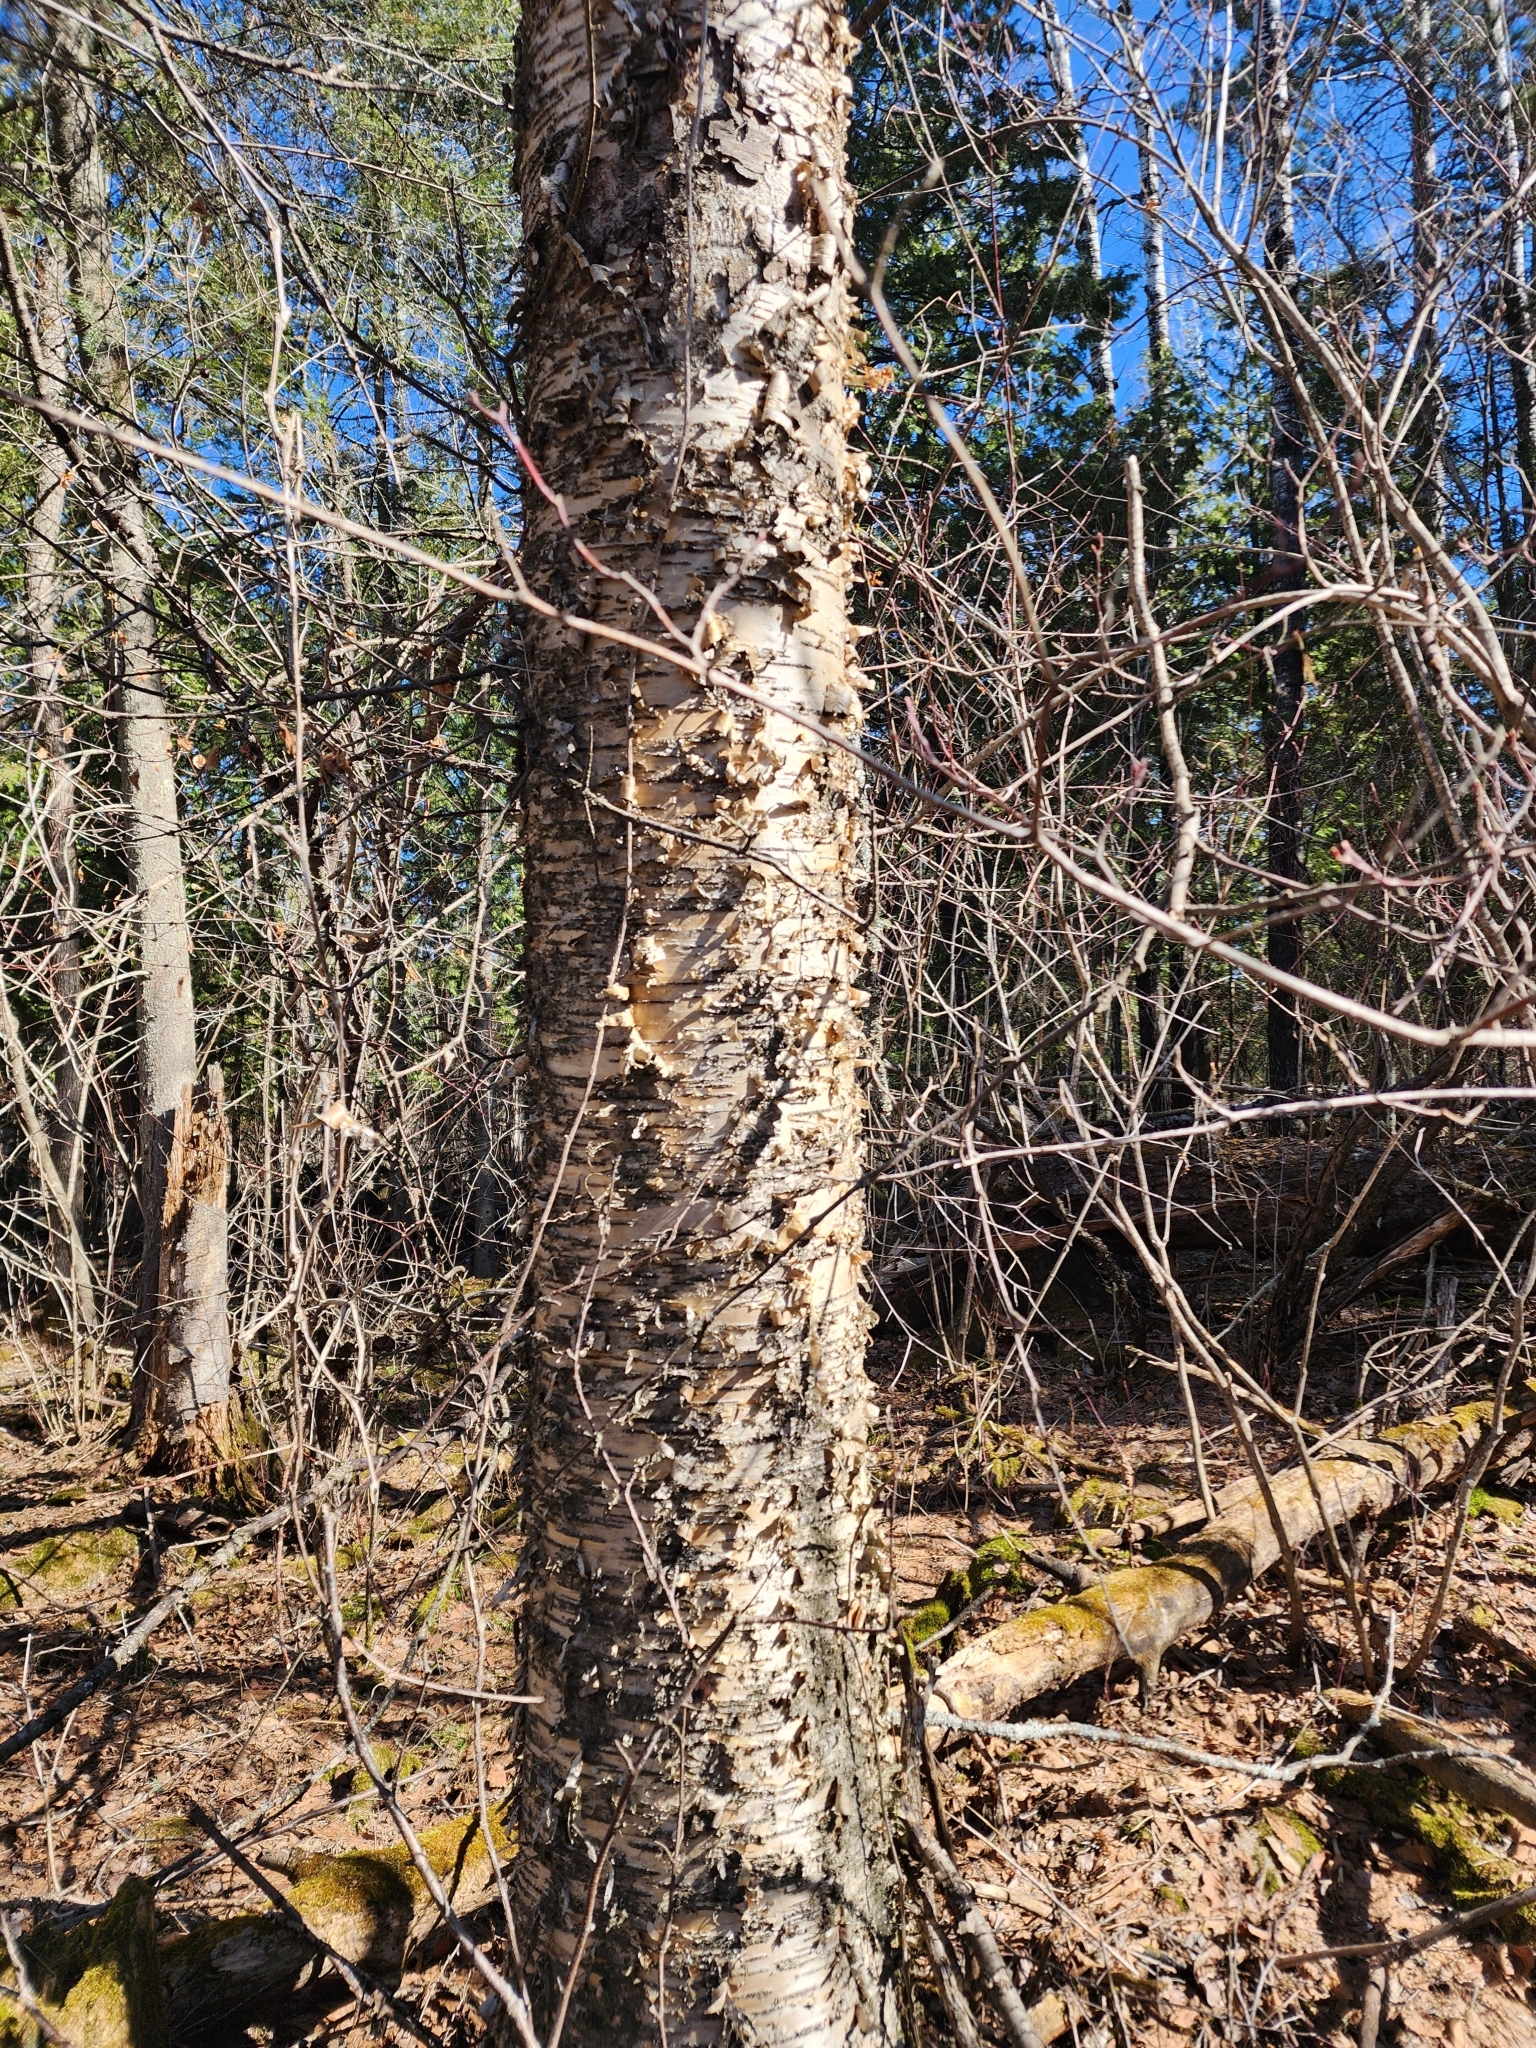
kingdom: Plantae
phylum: Tracheophyta
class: Magnoliopsida
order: Fagales
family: Betulaceae
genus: Betula
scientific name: Betula alleghaniensis
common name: Yellow birch
